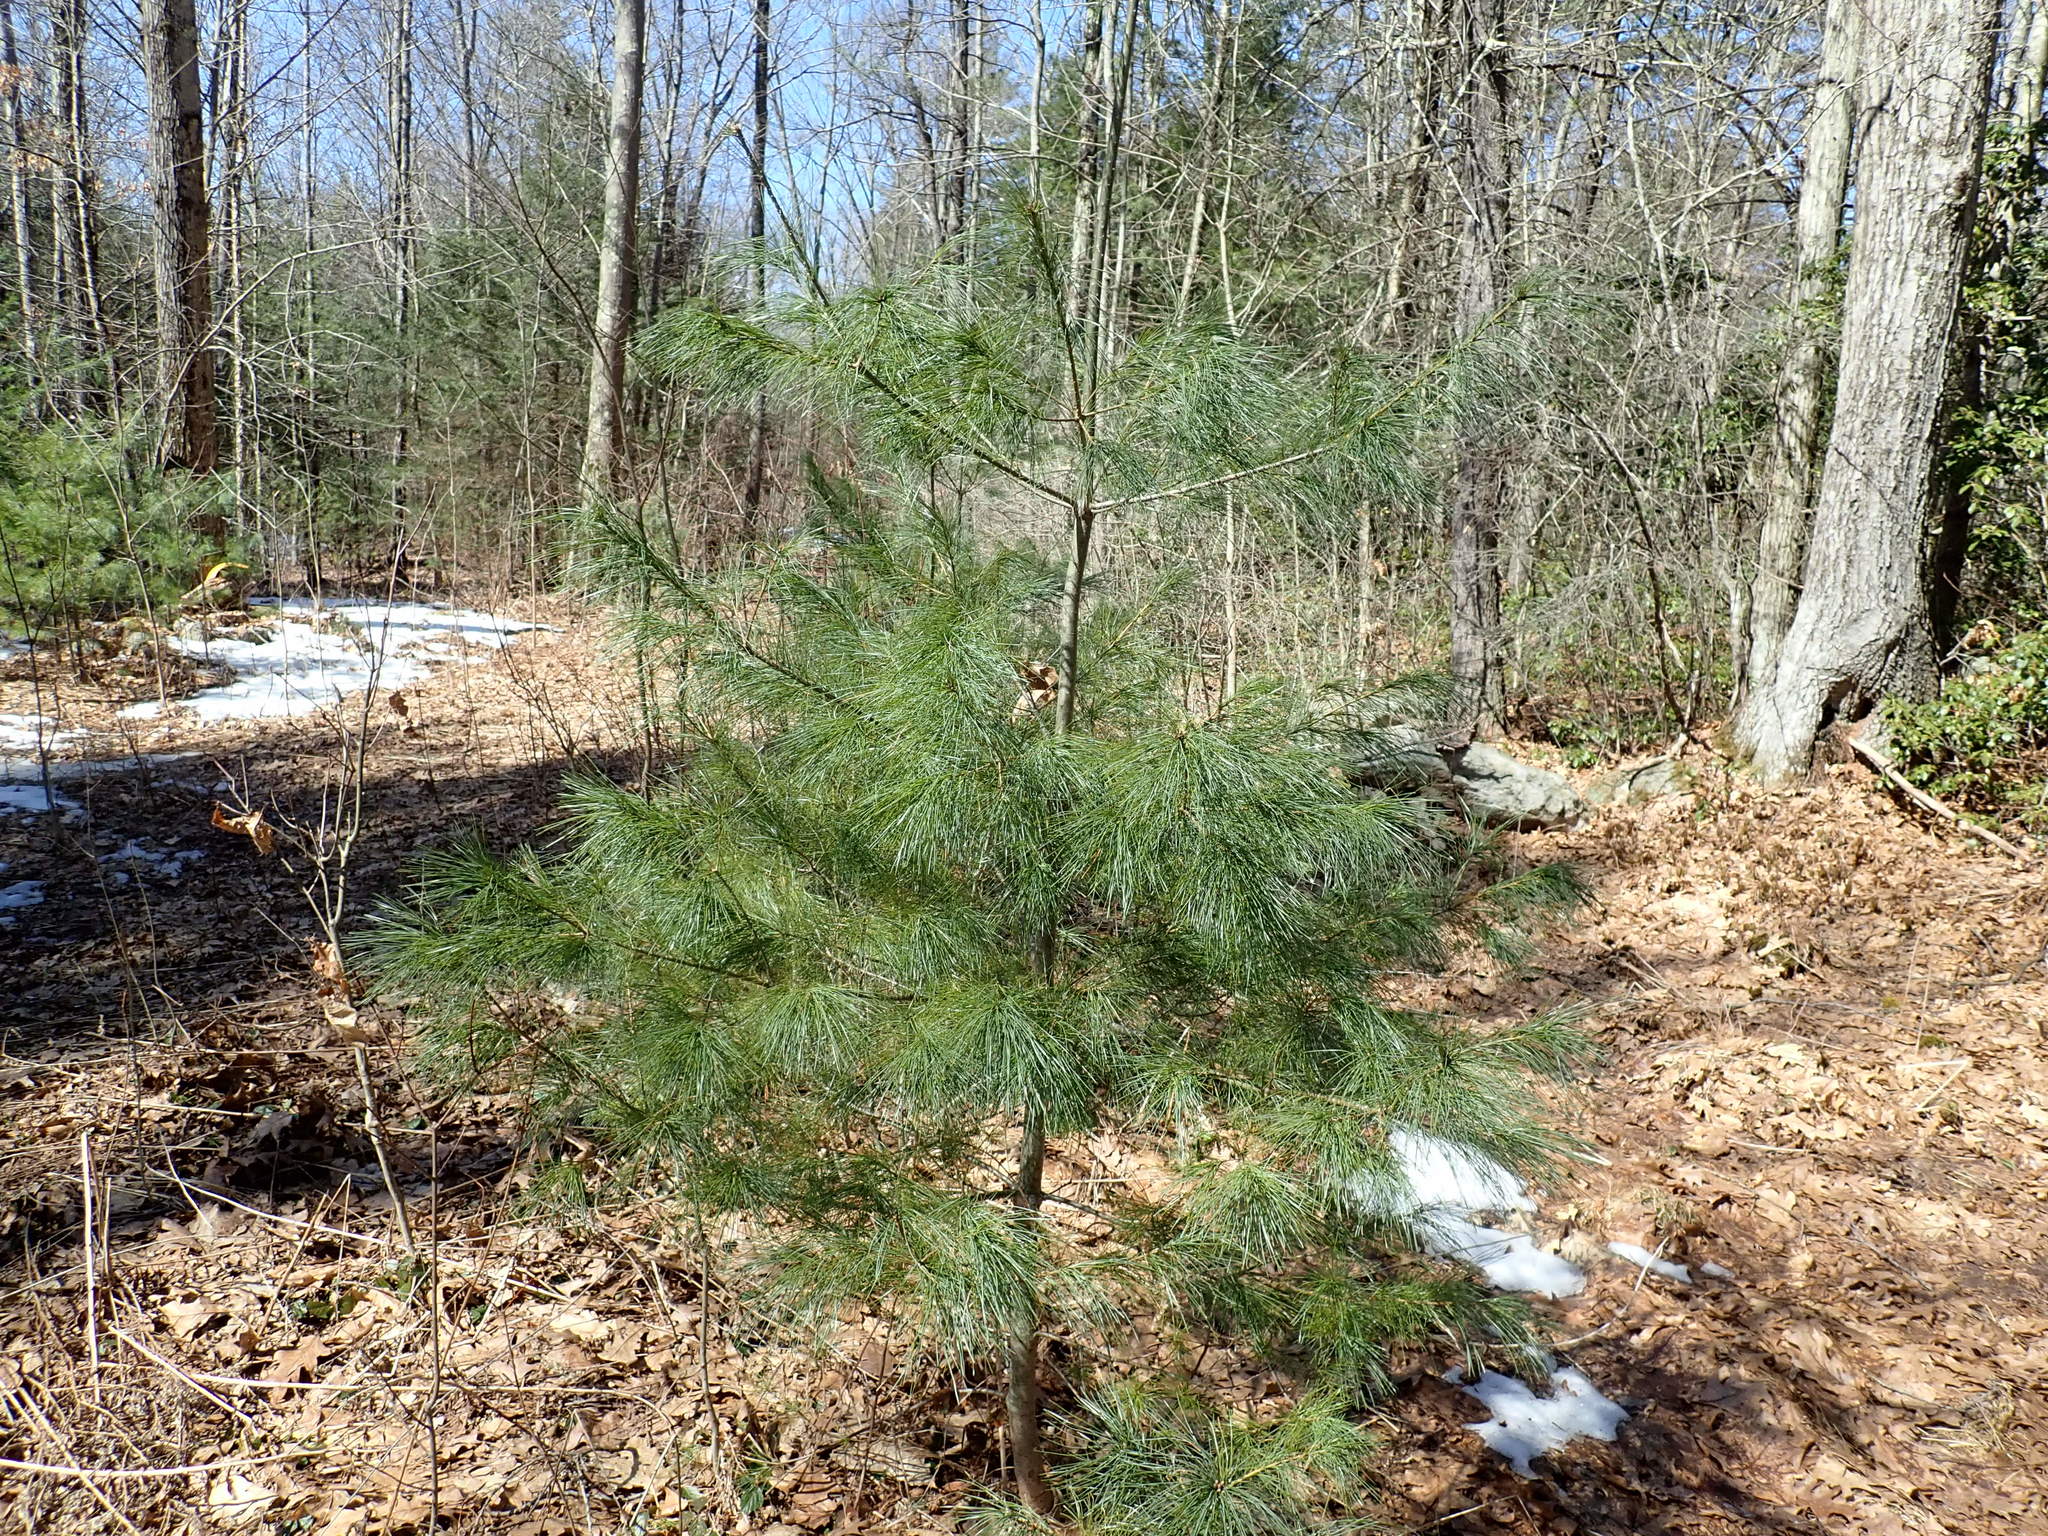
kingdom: Plantae
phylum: Tracheophyta
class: Pinopsida
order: Pinales
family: Pinaceae
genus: Pinus
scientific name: Pinus strobus
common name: Weymouth pine
